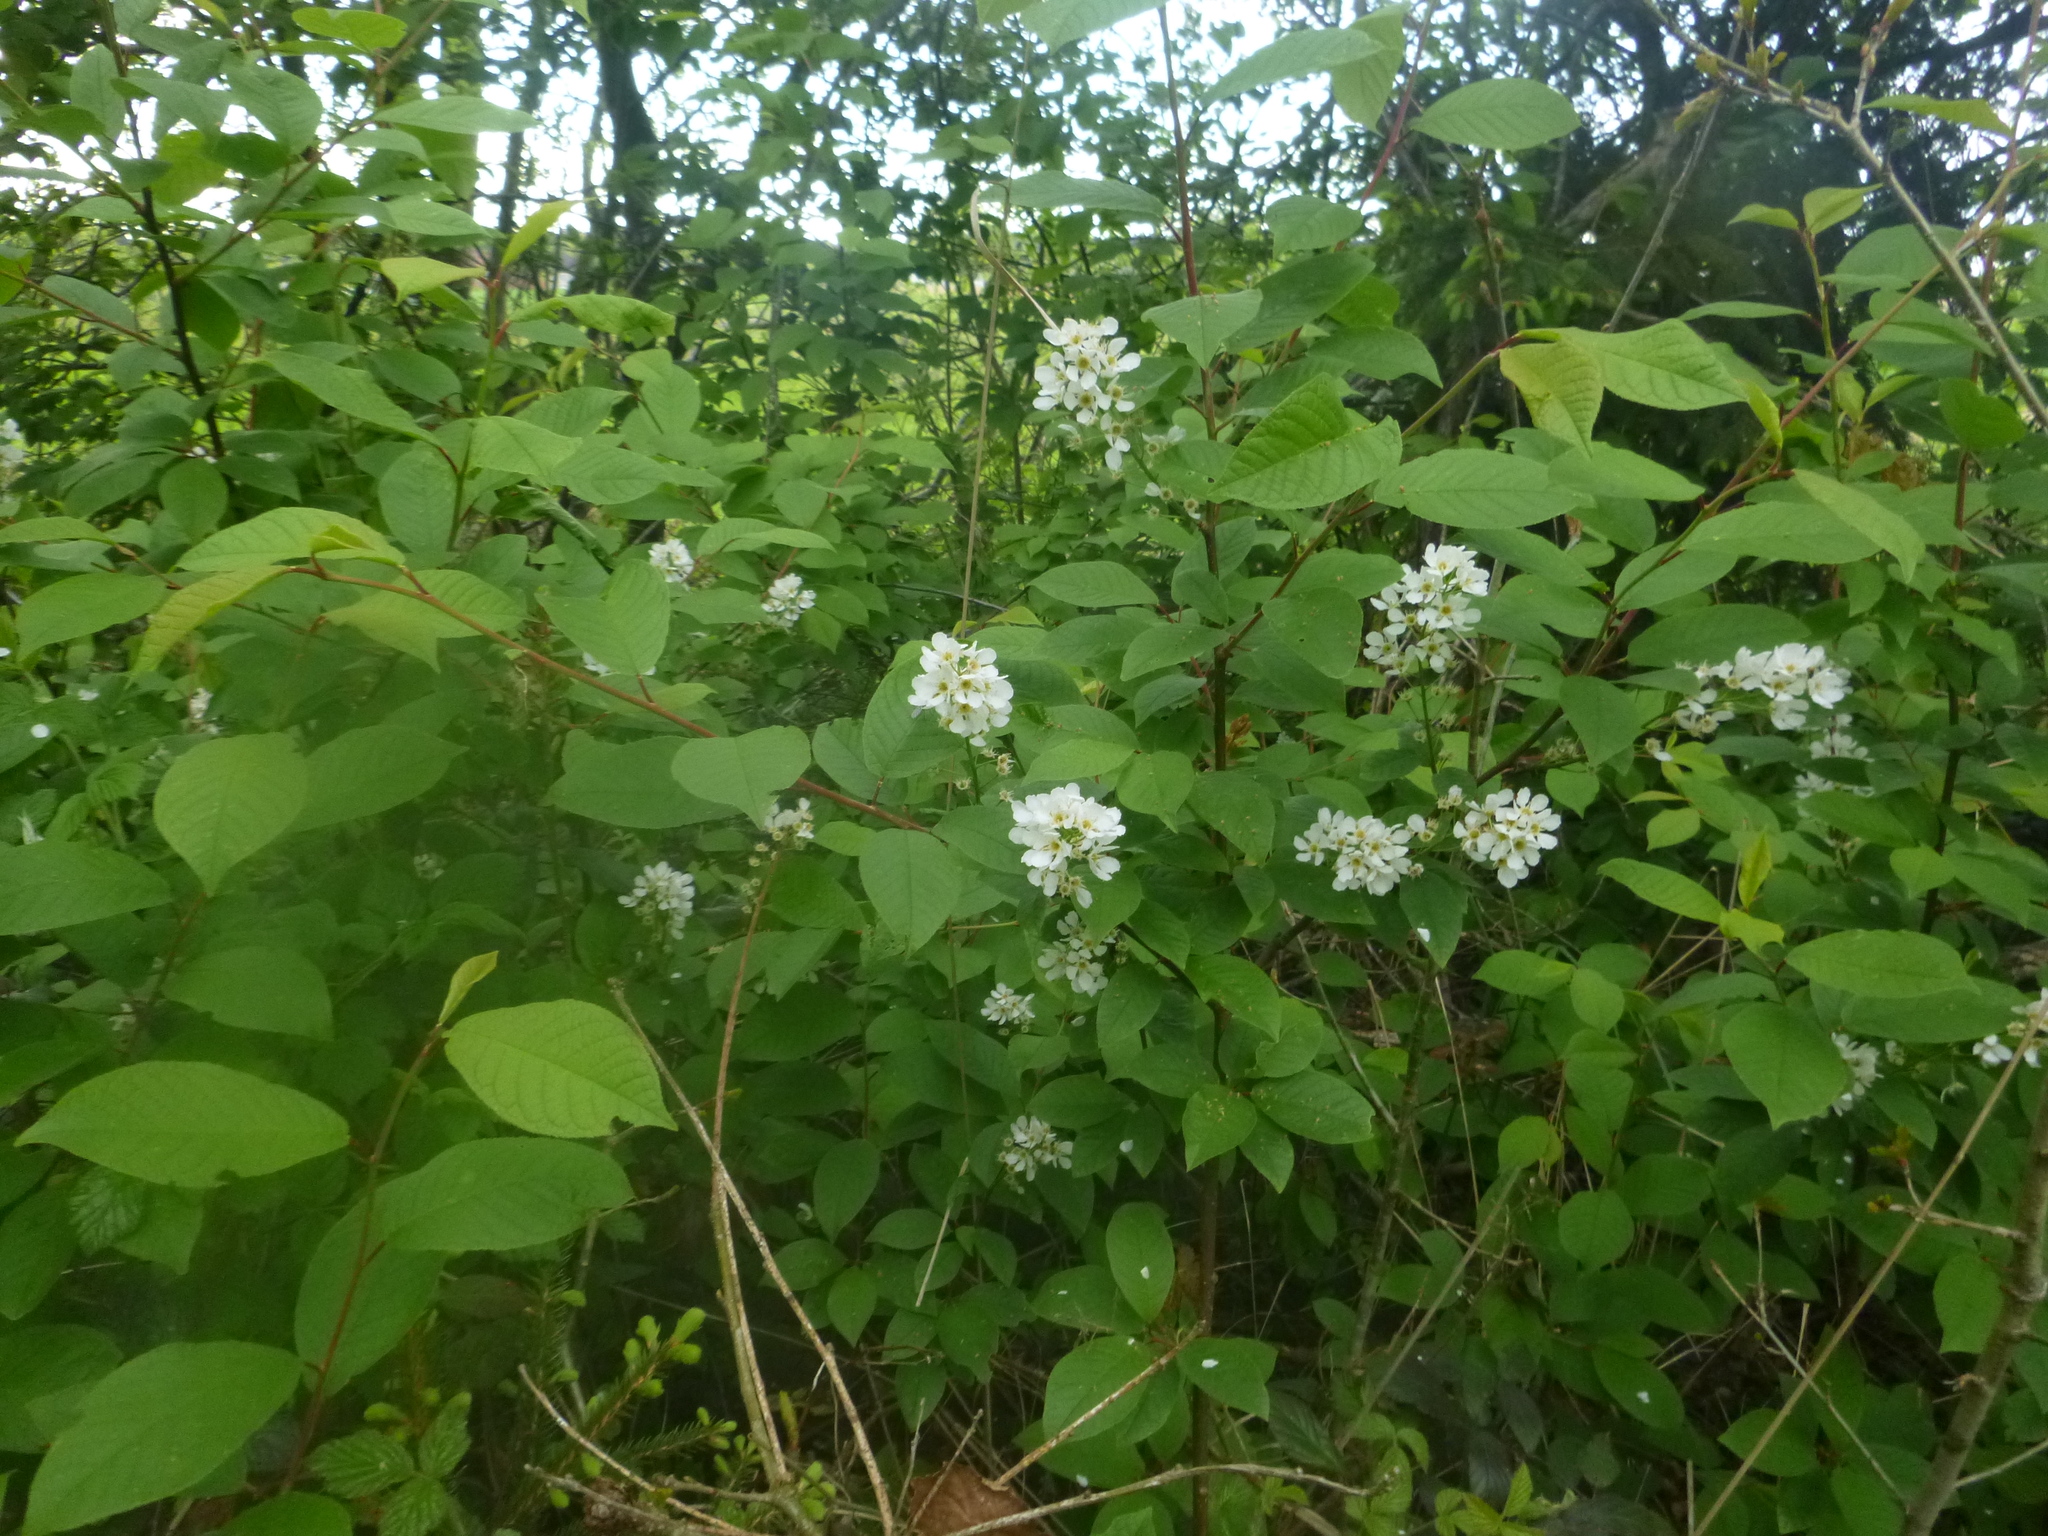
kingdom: Plantae
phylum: Tracheophyta
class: Magnoliopsida
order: Rosales
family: Rosaceae
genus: Prunus
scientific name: Prunus padus
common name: Bird cherry
